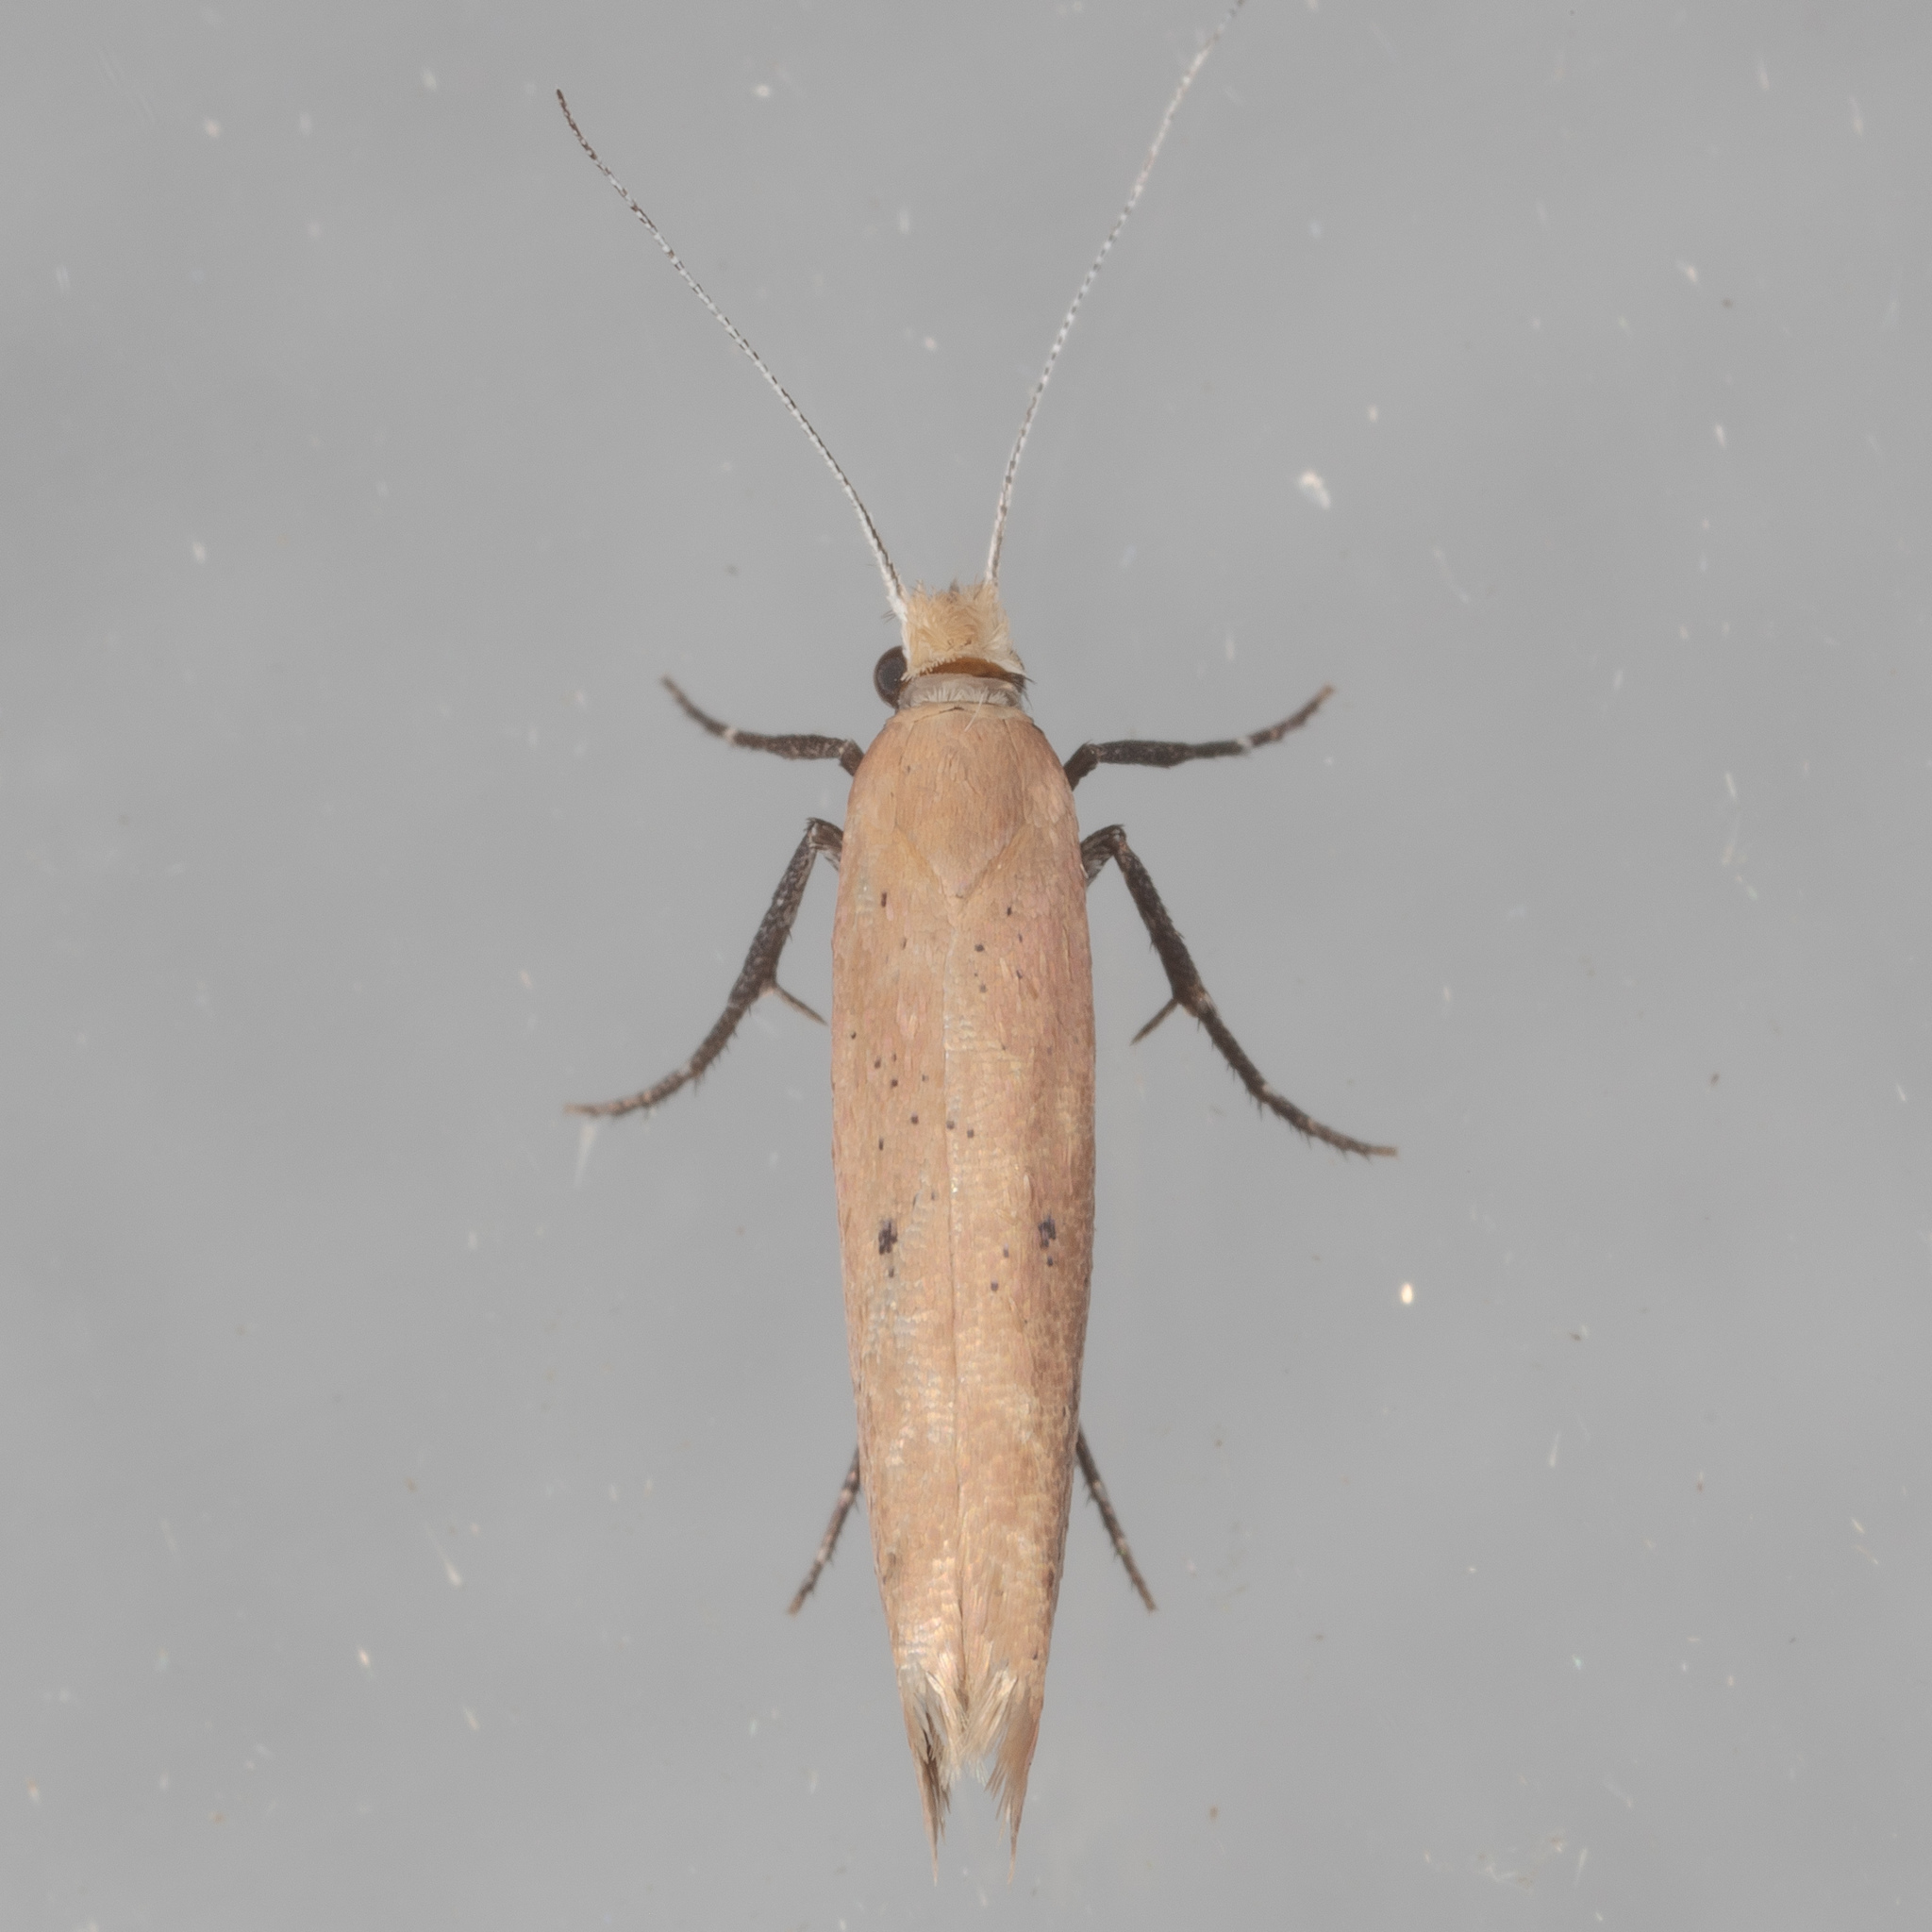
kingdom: Animalia
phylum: Arthropoda
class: Insecta
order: Lepidoptera
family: Ypsolophidae
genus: Ypsolopha
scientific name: Ypsolopha
